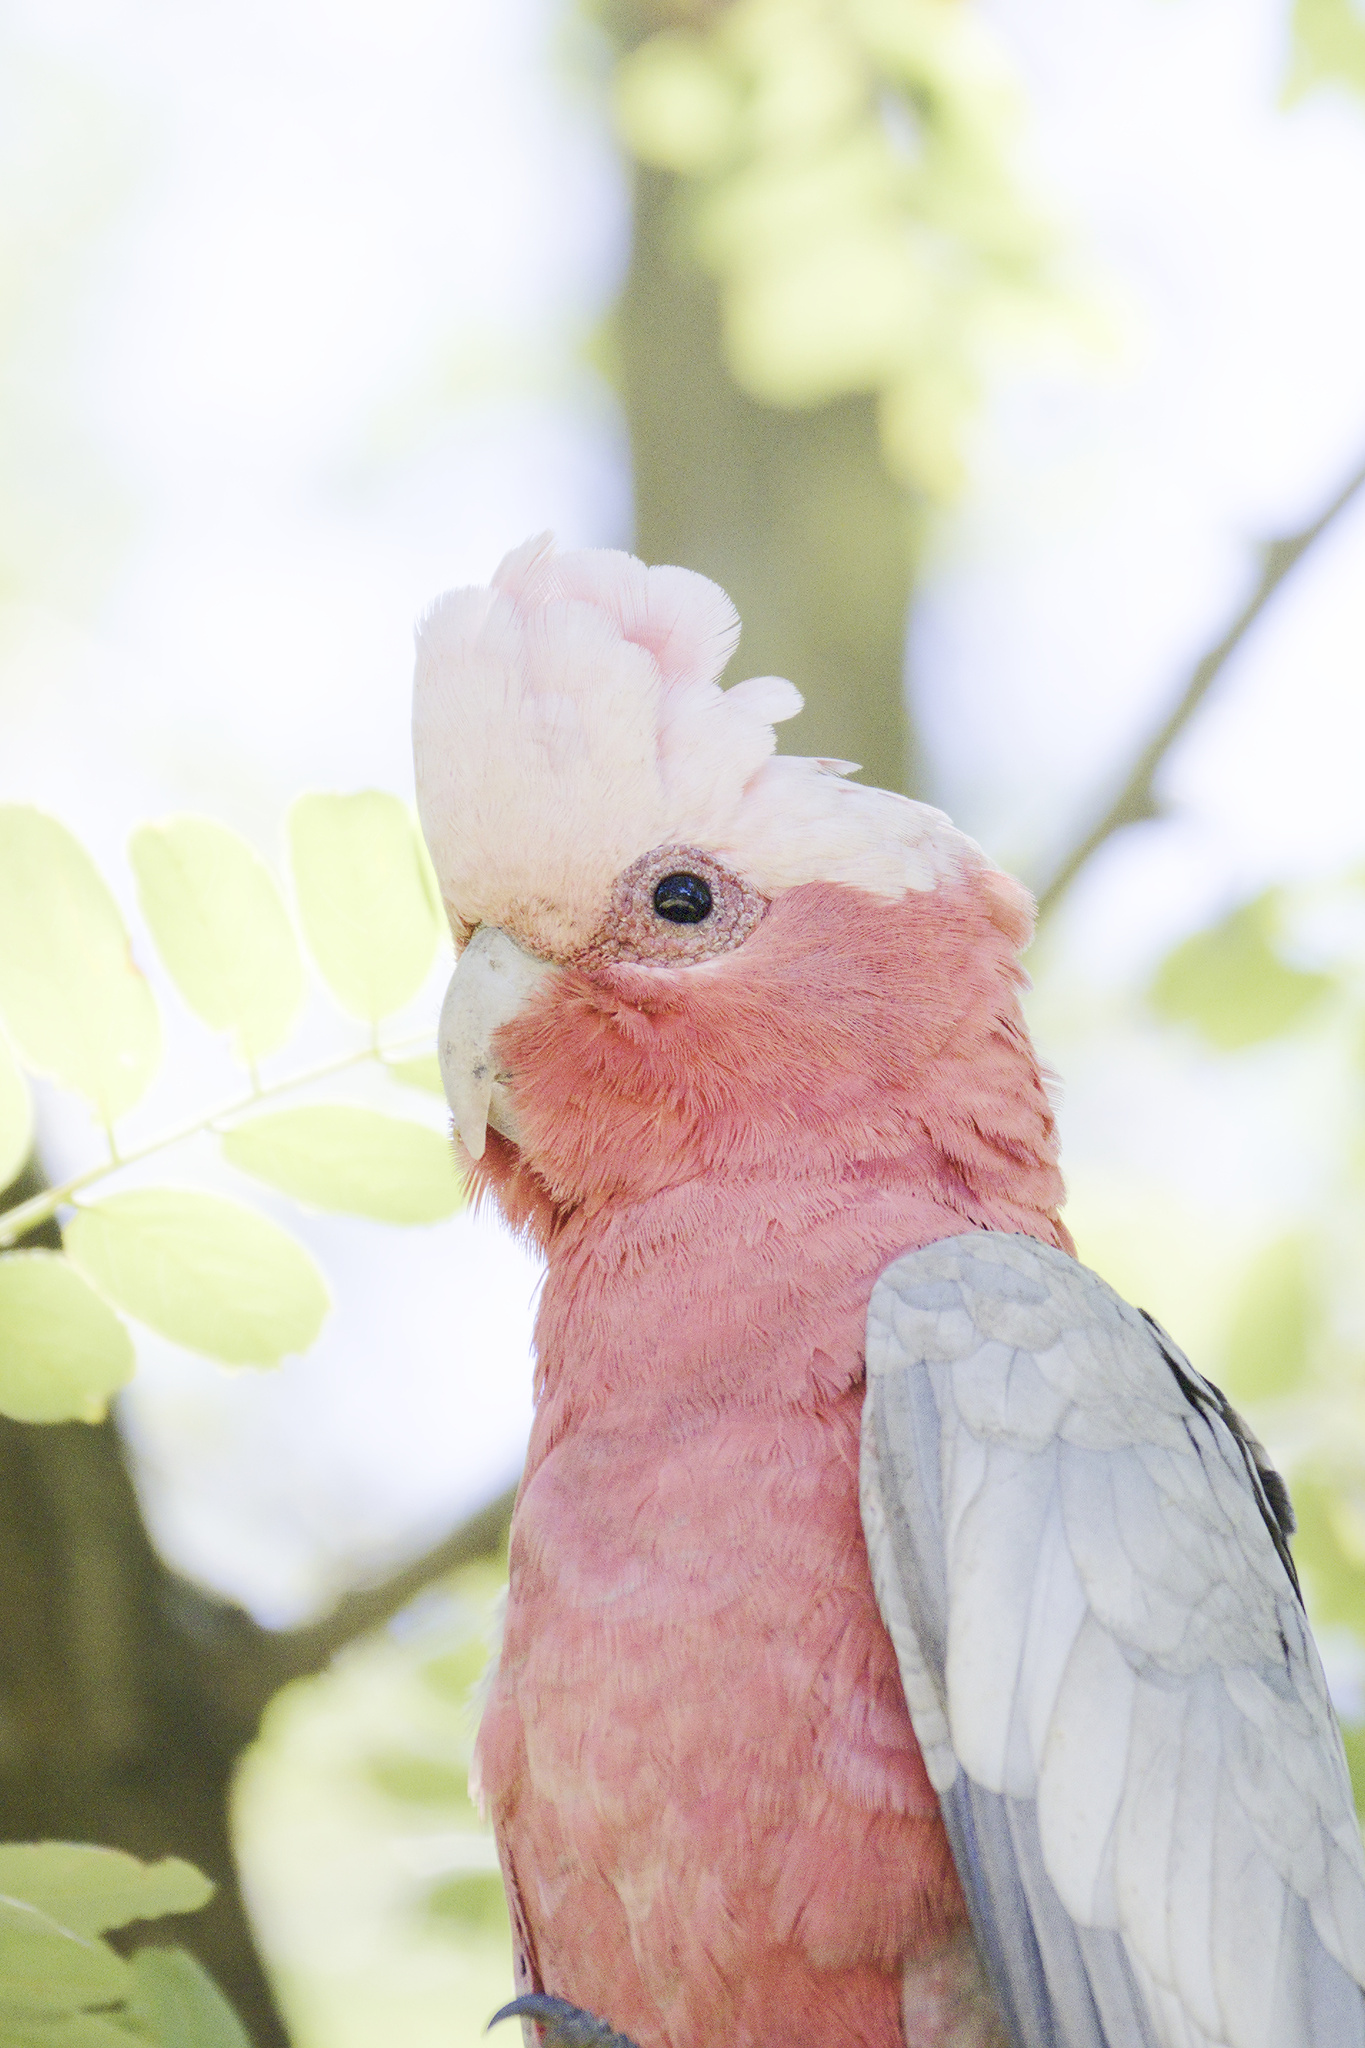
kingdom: Animalia
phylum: Chordata
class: Aves
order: Psittaciformes
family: Psittacidae
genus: Eolophus
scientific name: Eolophus roseicapilla
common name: Galah
